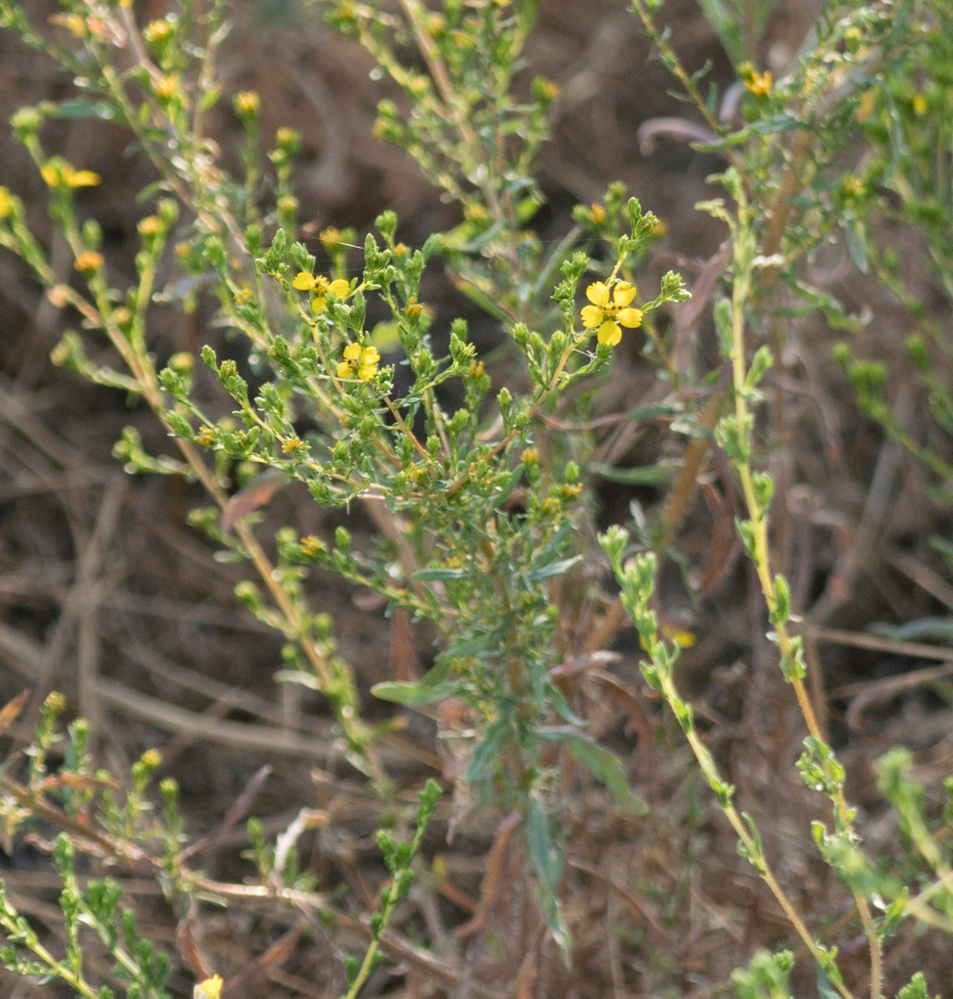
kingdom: Plantae
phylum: Tracheophyta
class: Magnoliopsida
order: Asterales
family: Asteraceae
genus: Deinandra
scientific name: Deinandra fasciculata
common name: Clustered tarweed
